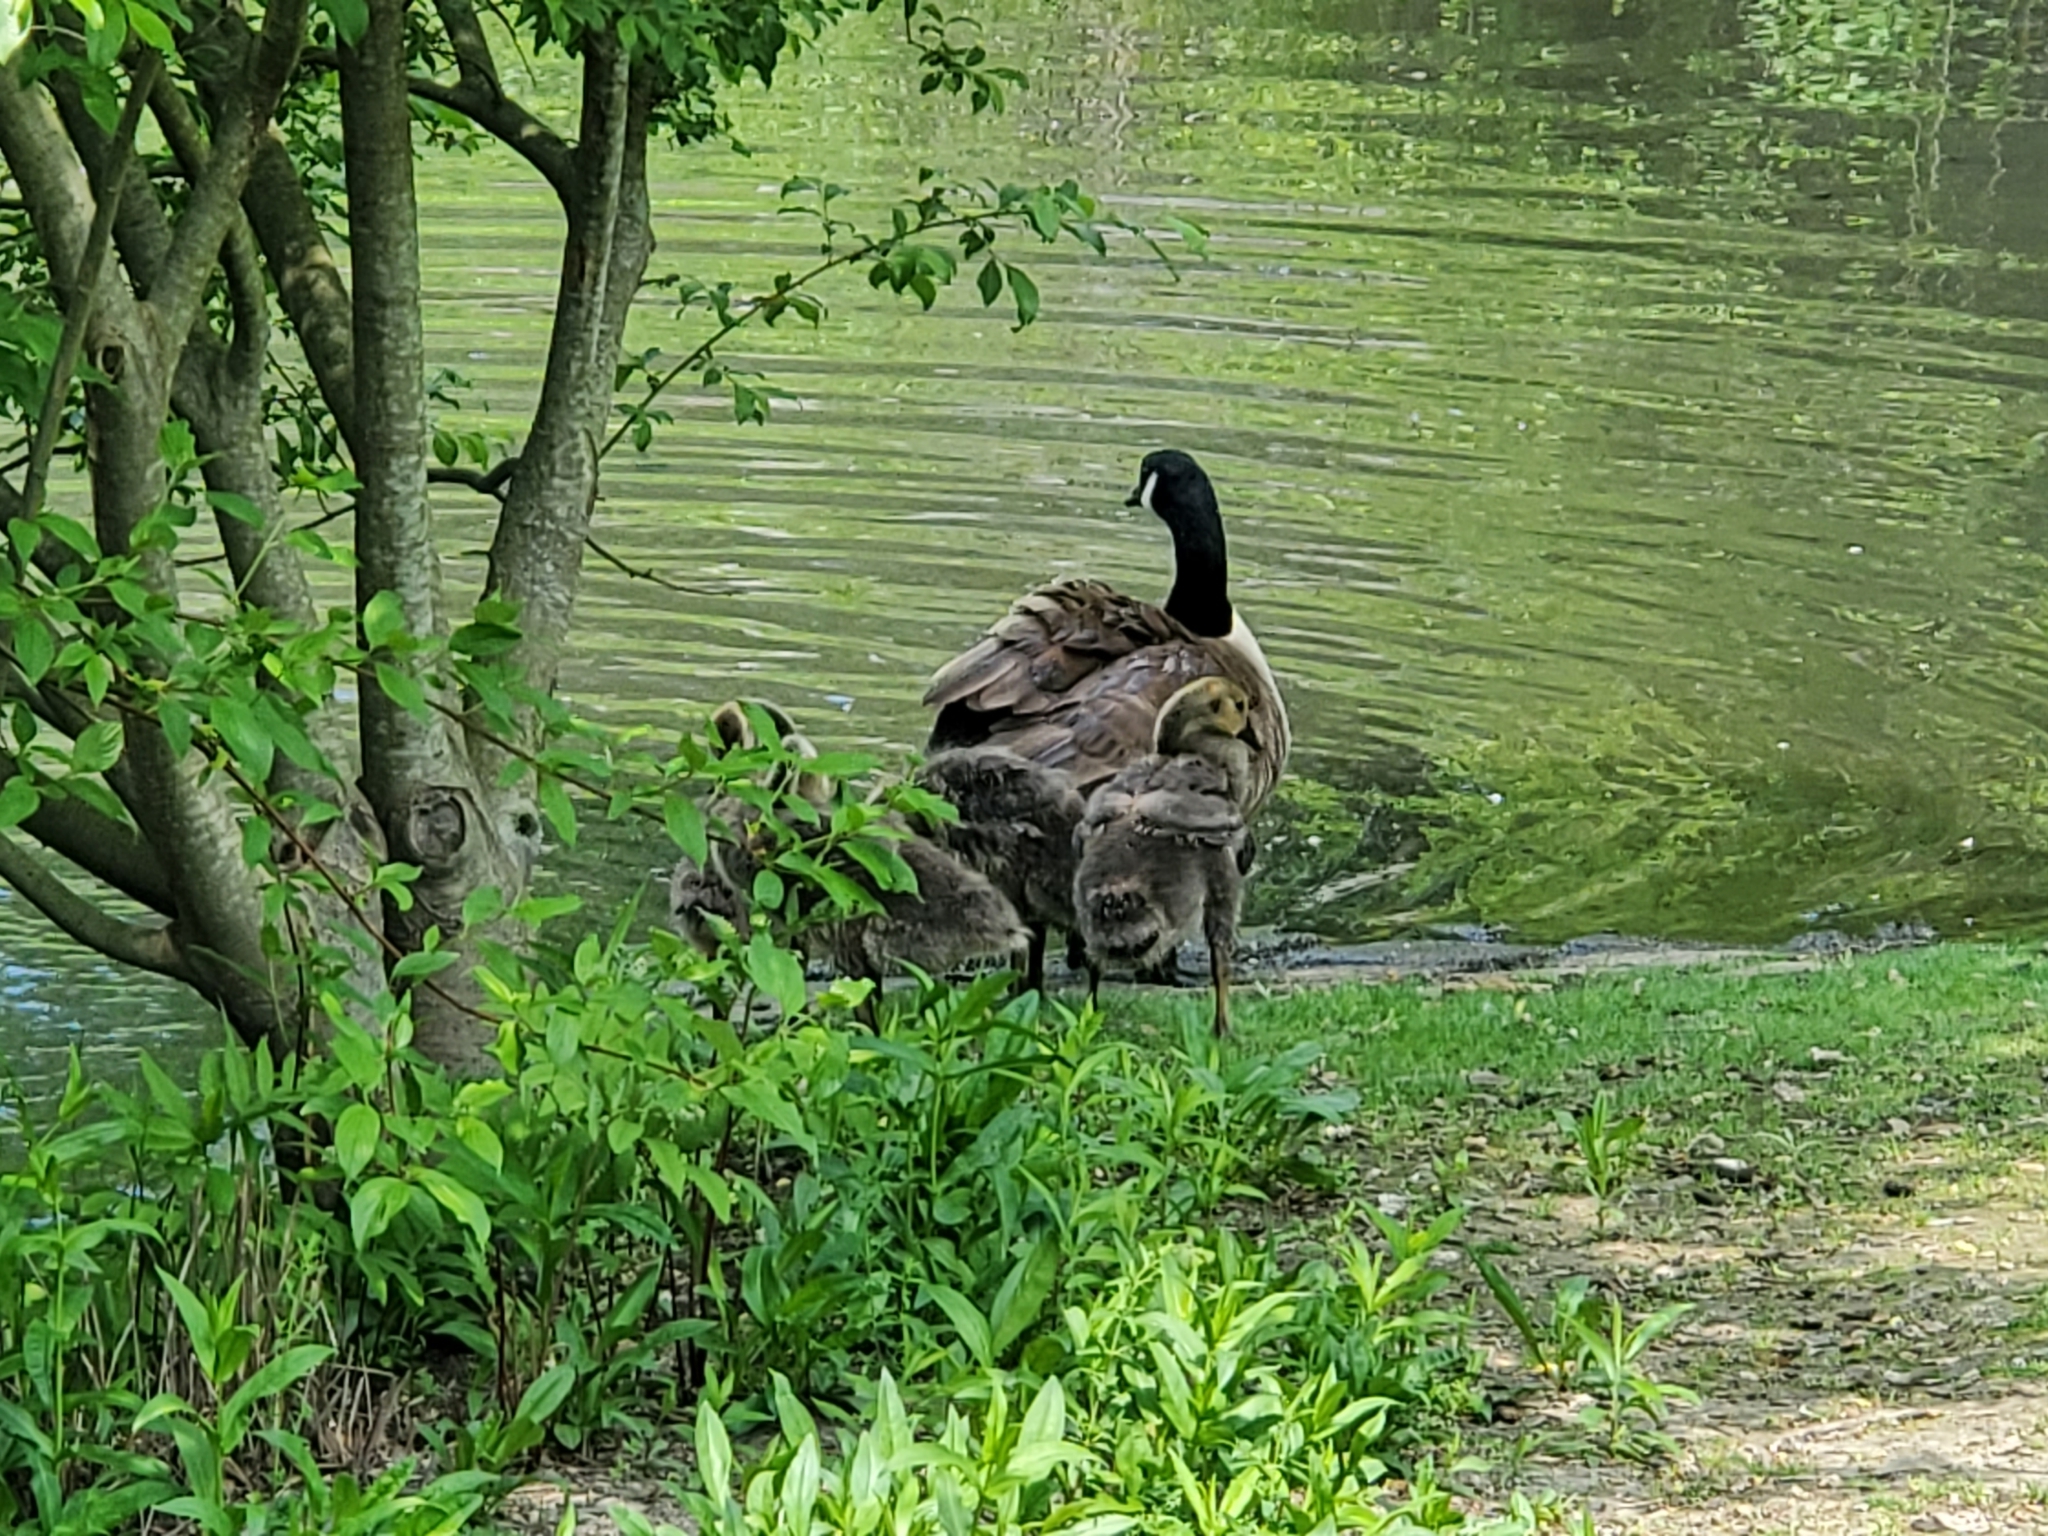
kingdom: Animalia
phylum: Chordata
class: Aves
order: Anseriformes
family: Anatidae
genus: Branta
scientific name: Branta canadensis
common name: Canada goose
